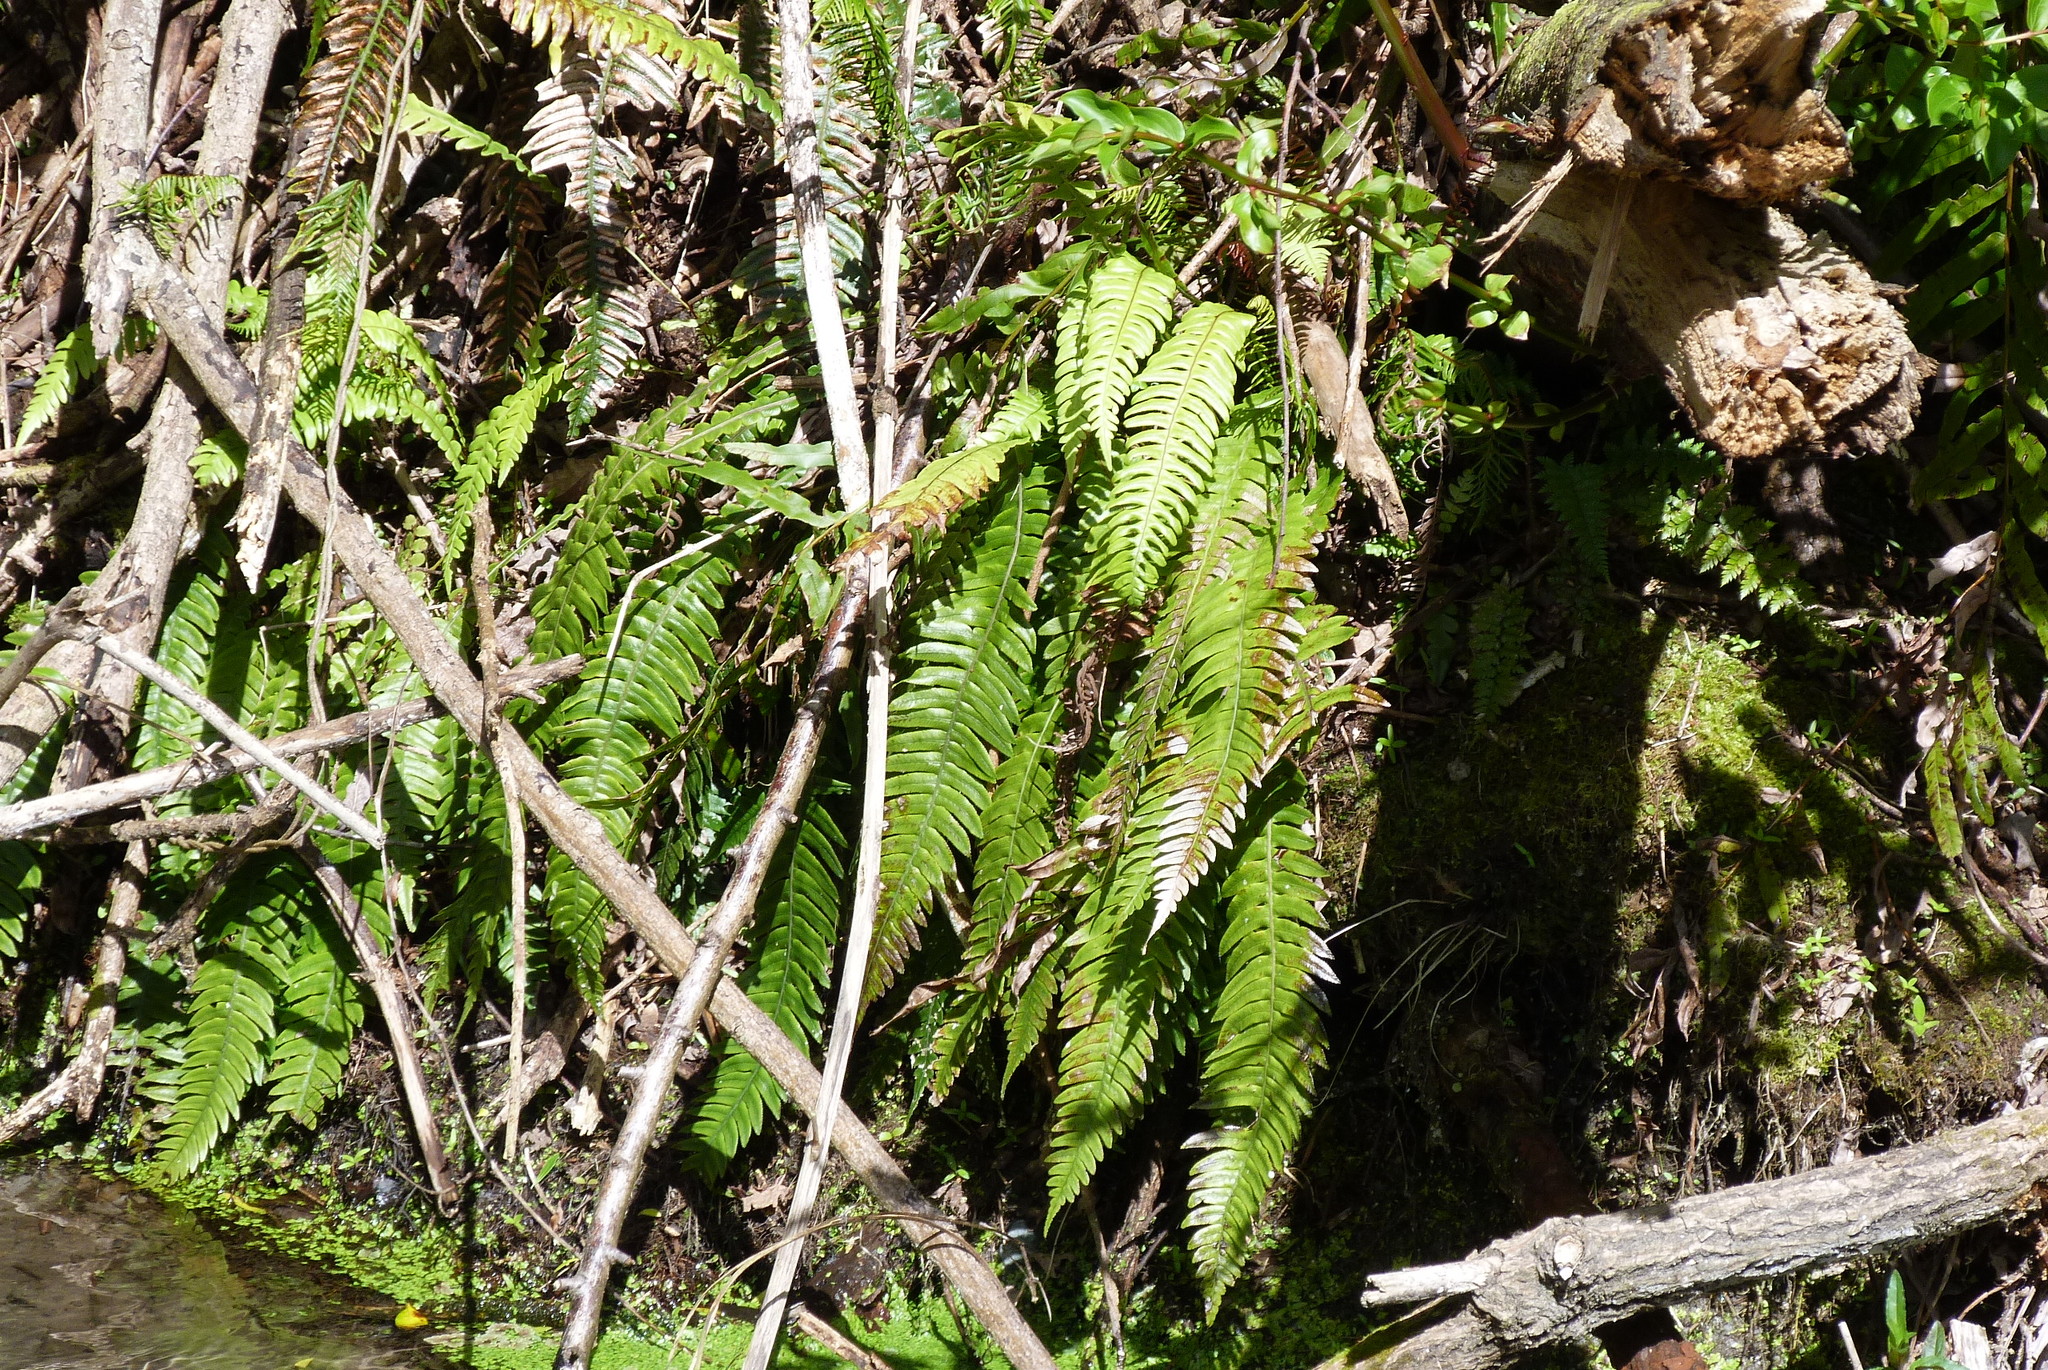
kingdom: Plantae
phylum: Tracheophyta
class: Polypodiopsida
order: Polypodiales
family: Blechnaceae
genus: Austroblechnum
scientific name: Austroblechnum lanceolatum
